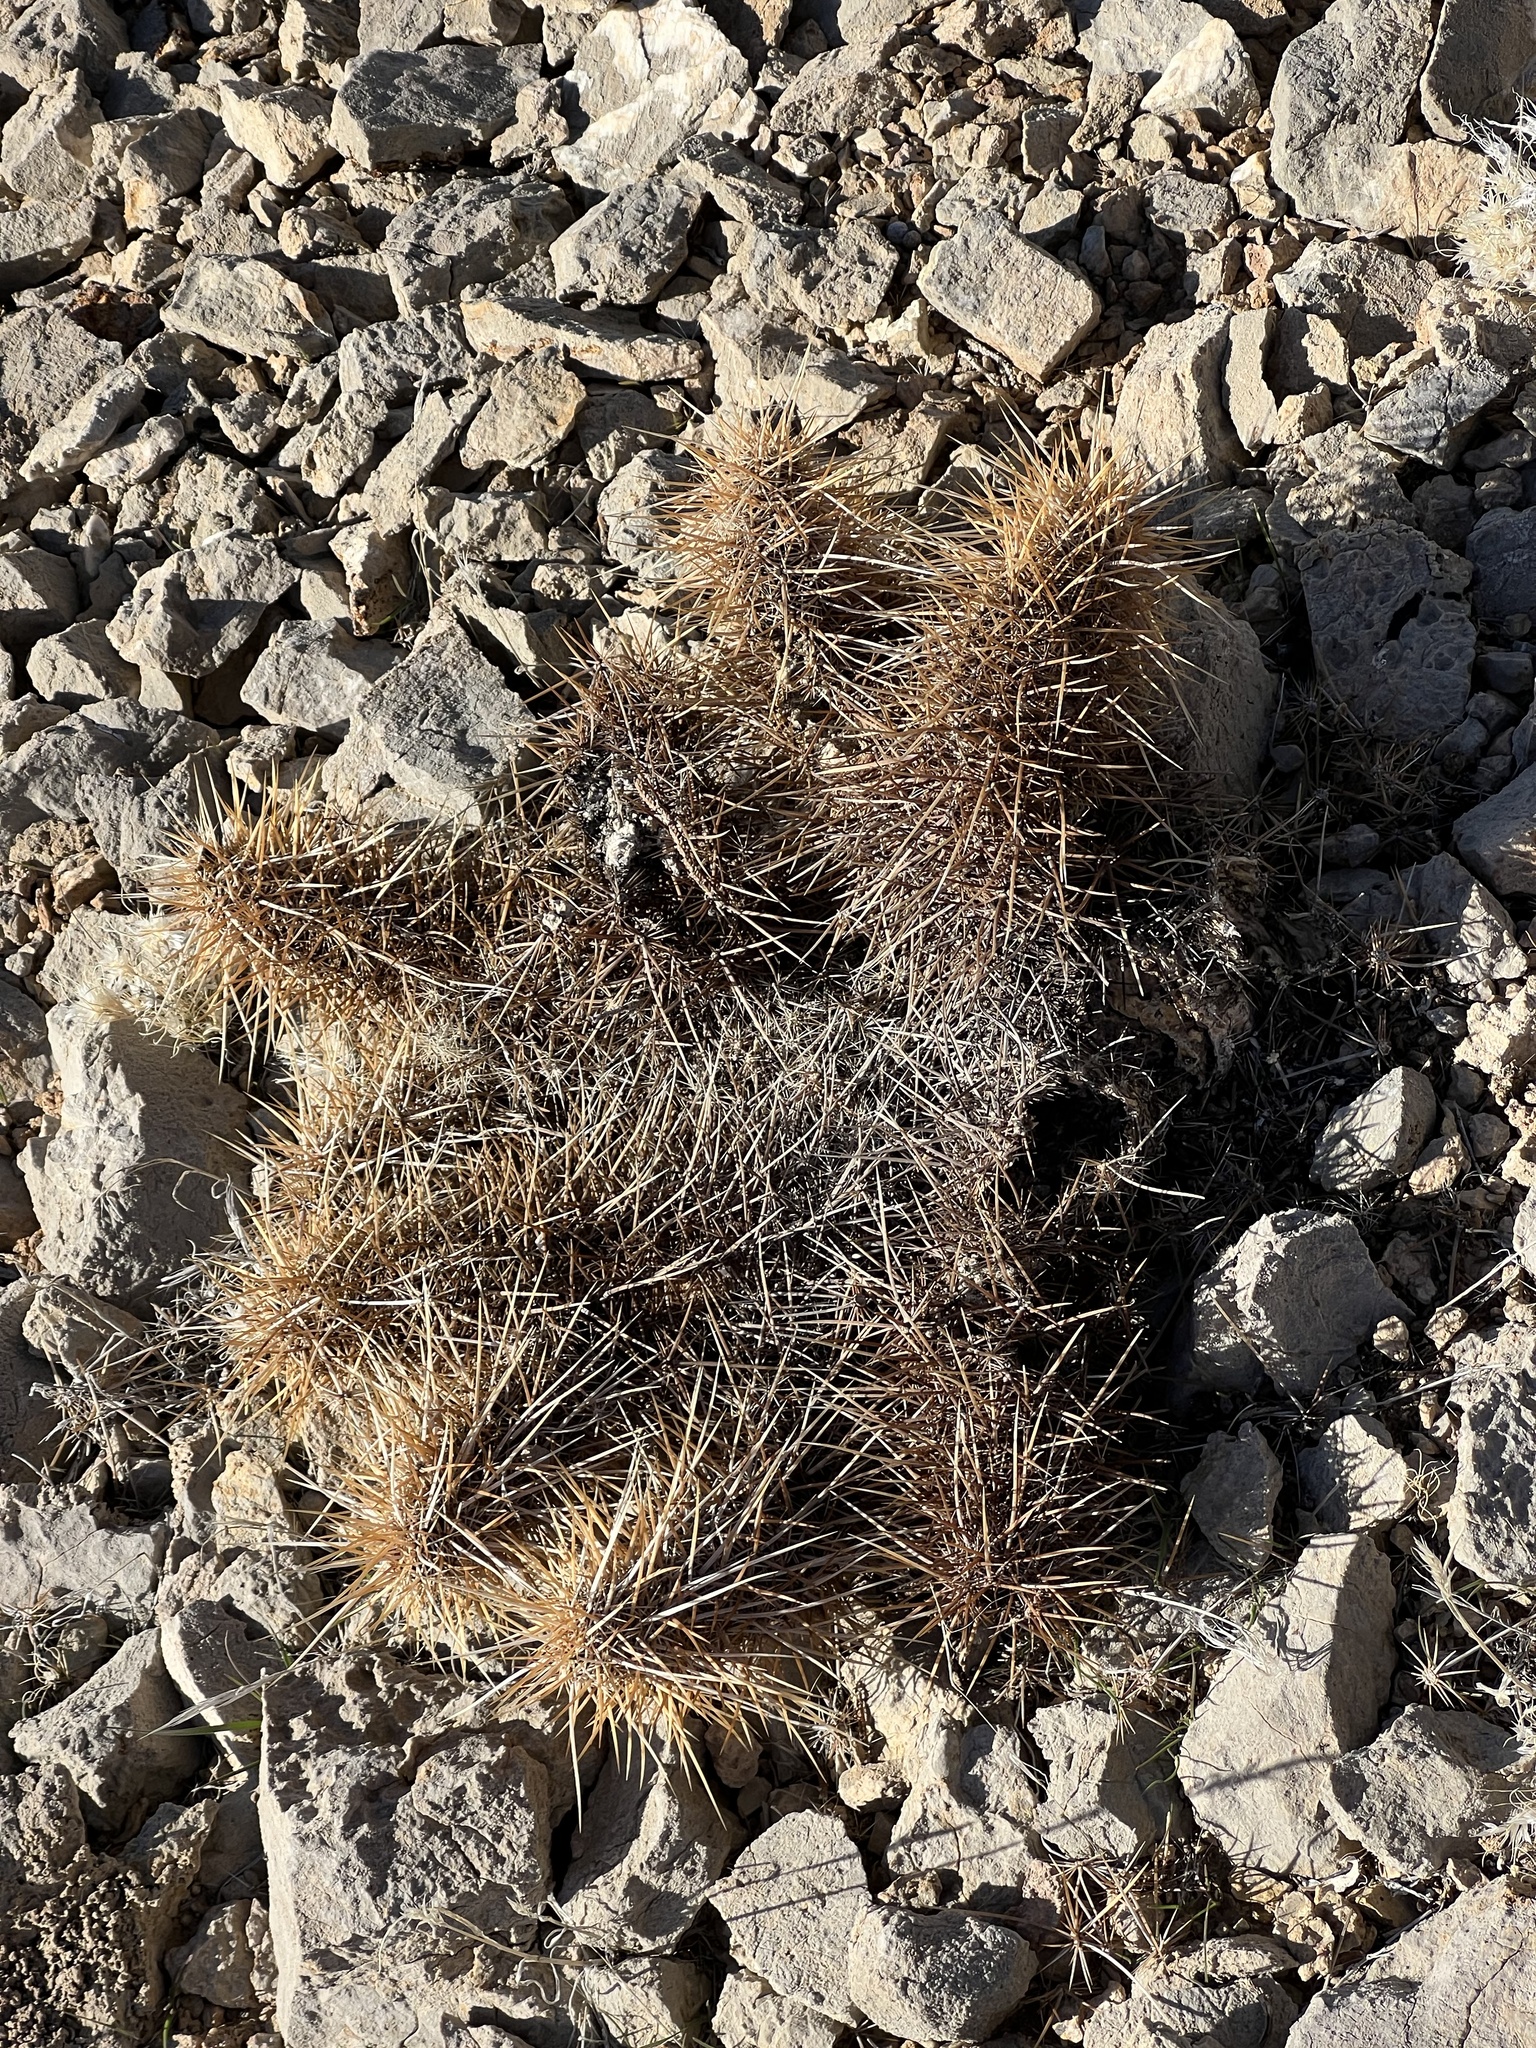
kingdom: Plantae
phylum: Tracheophyta
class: Magnoliopsida
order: Caryophyllales
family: Cactaceae
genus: Echinocereus
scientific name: Echinocereus engelmannii
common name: Engelmann's hedgehog cactus
